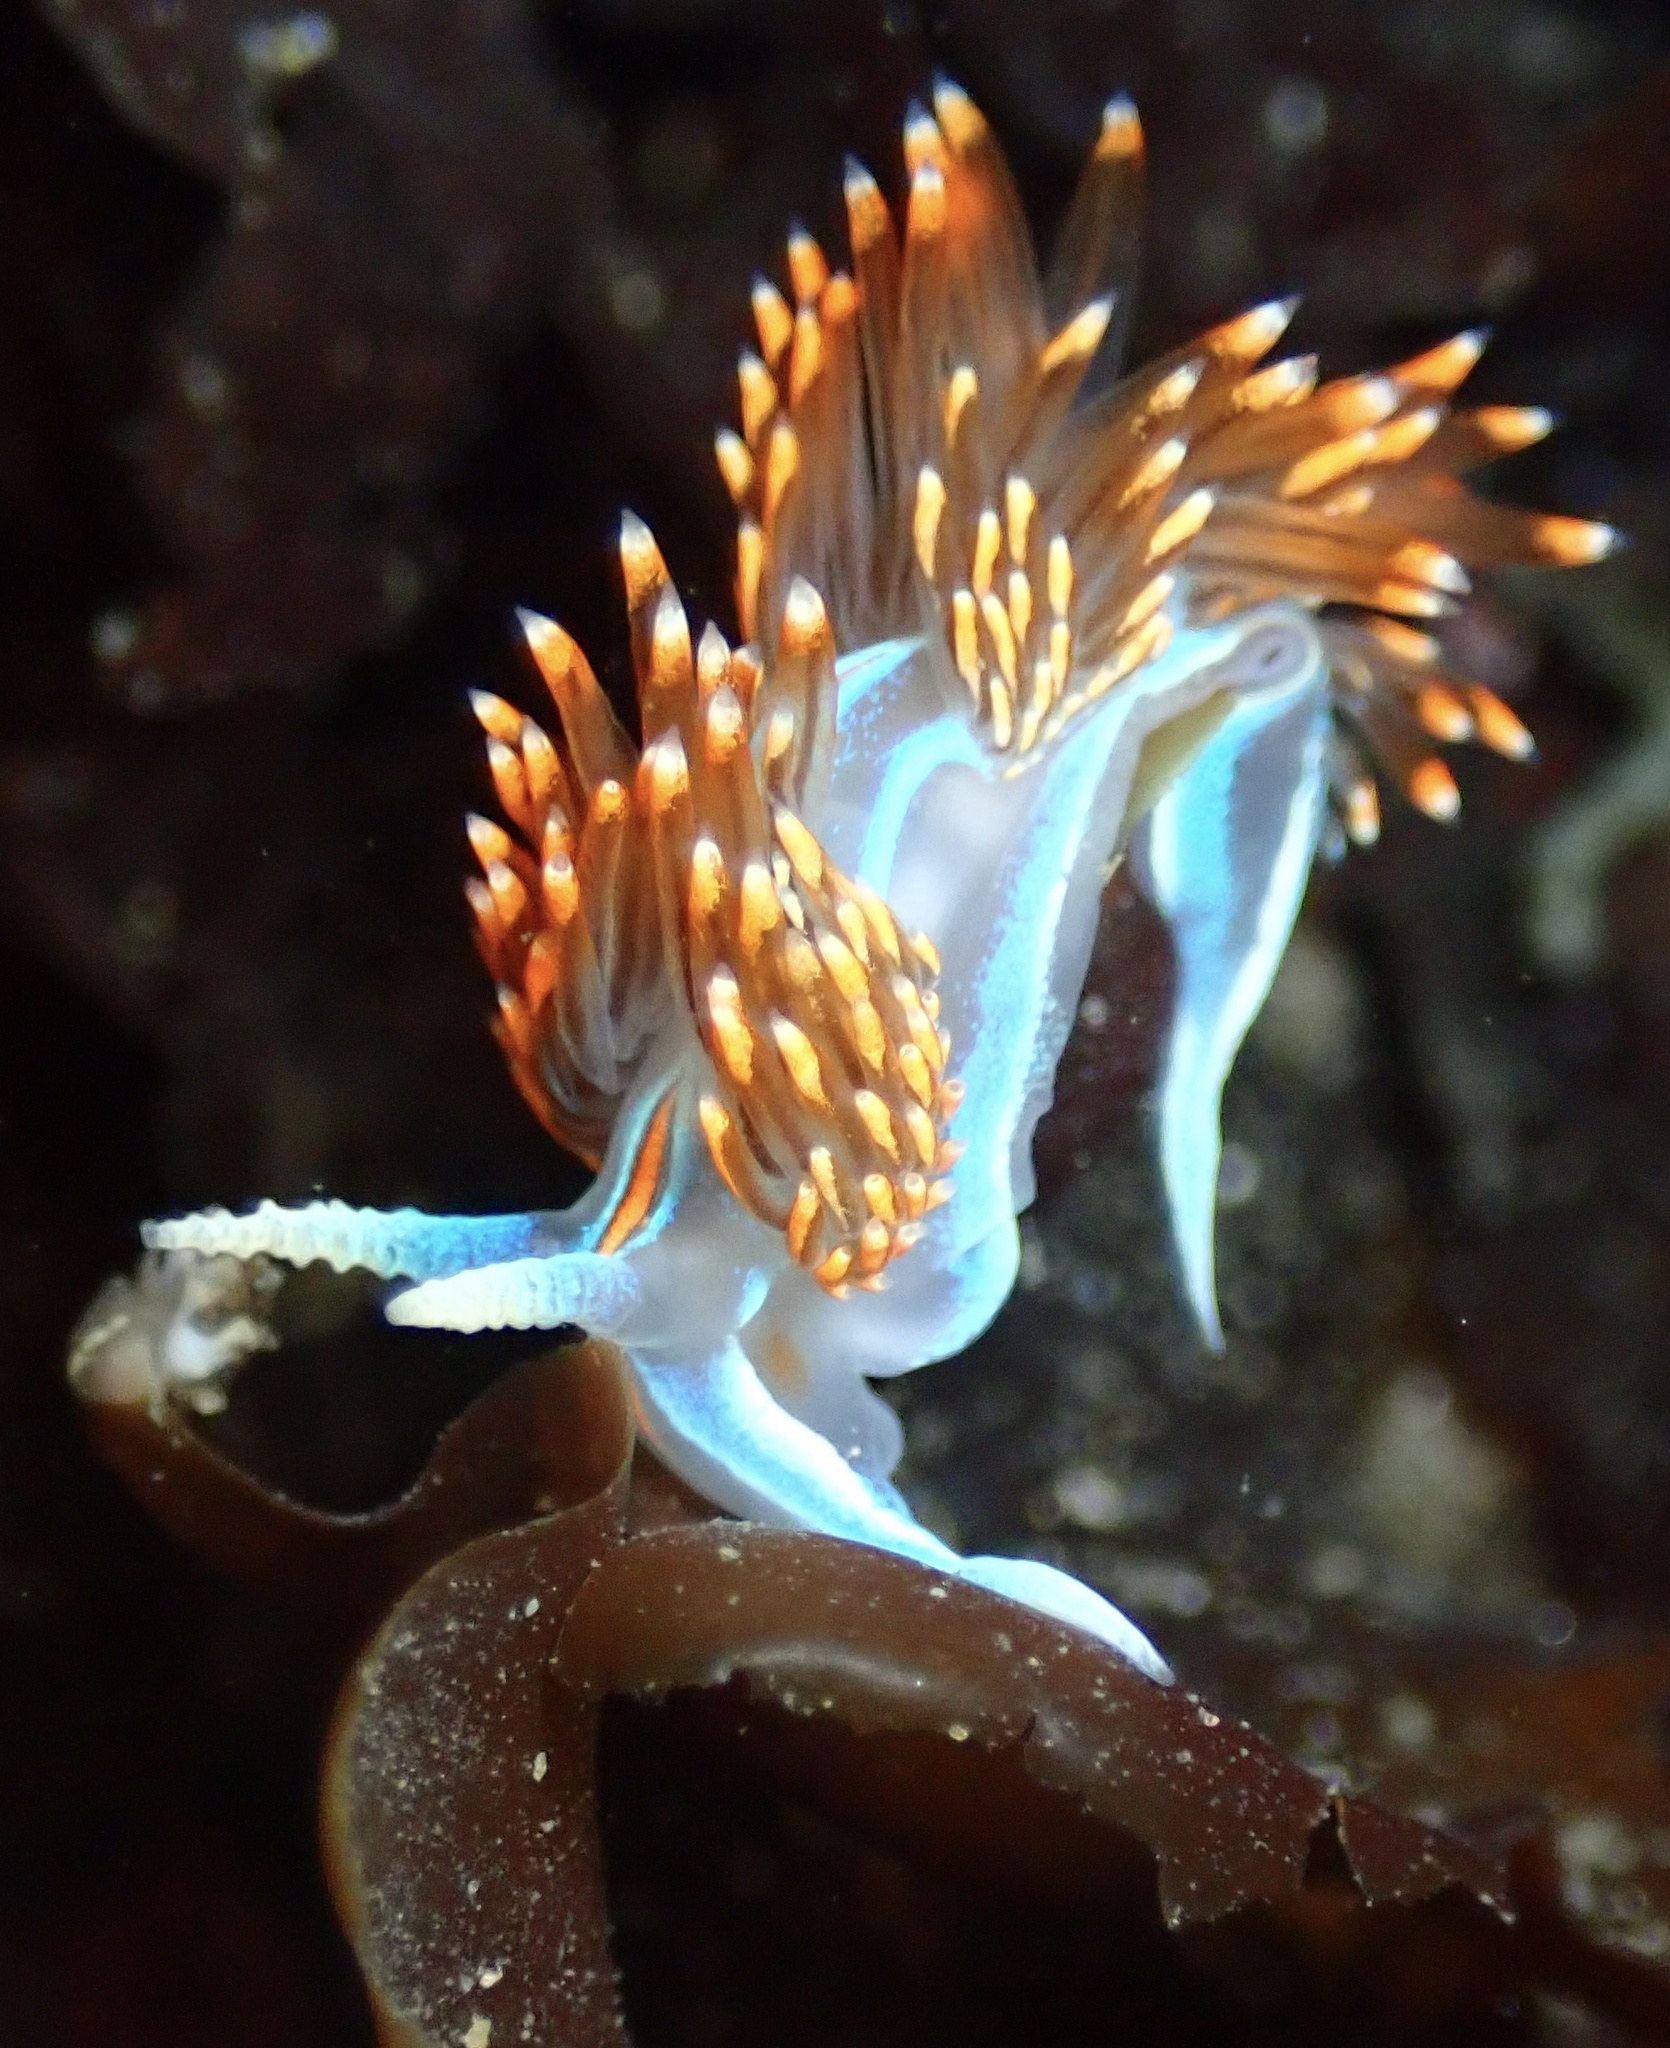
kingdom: Animalia
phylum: Mollusca
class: Gastropoda
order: Nudibranchia
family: Myrrhinidae
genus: Hermissenda
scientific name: Hermissenda opalescens
